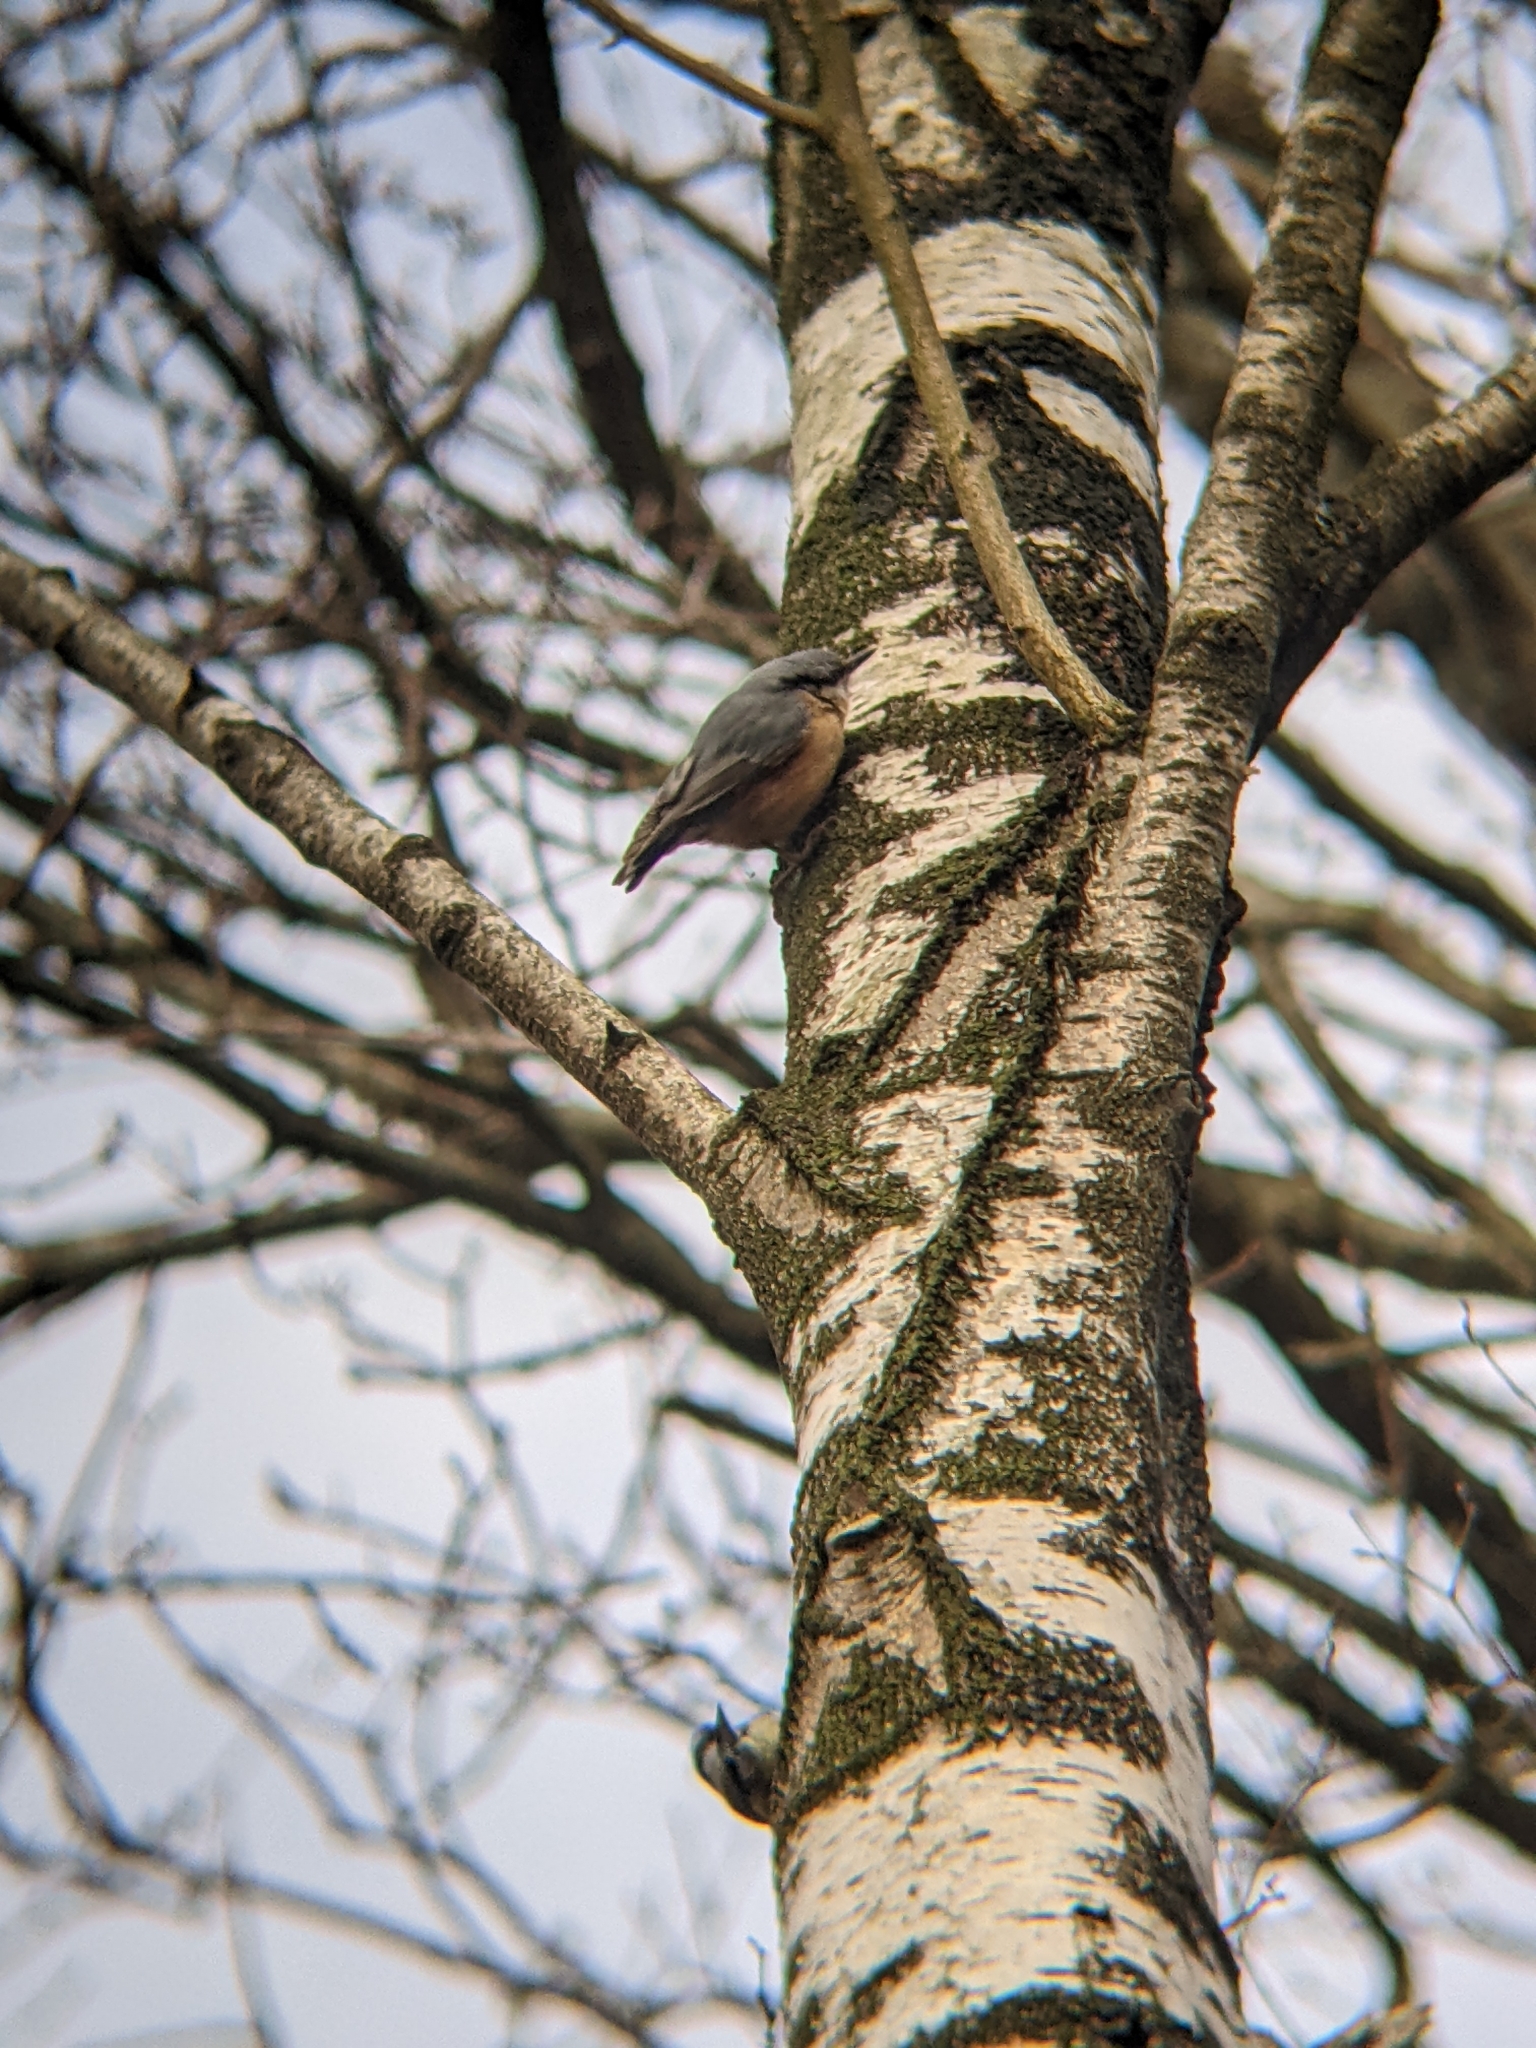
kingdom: Animalia
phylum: Chordata
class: Aves
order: Passeriformes
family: Sittidae
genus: Sitta
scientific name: Sitta europaea
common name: Eurasian nuthatch
